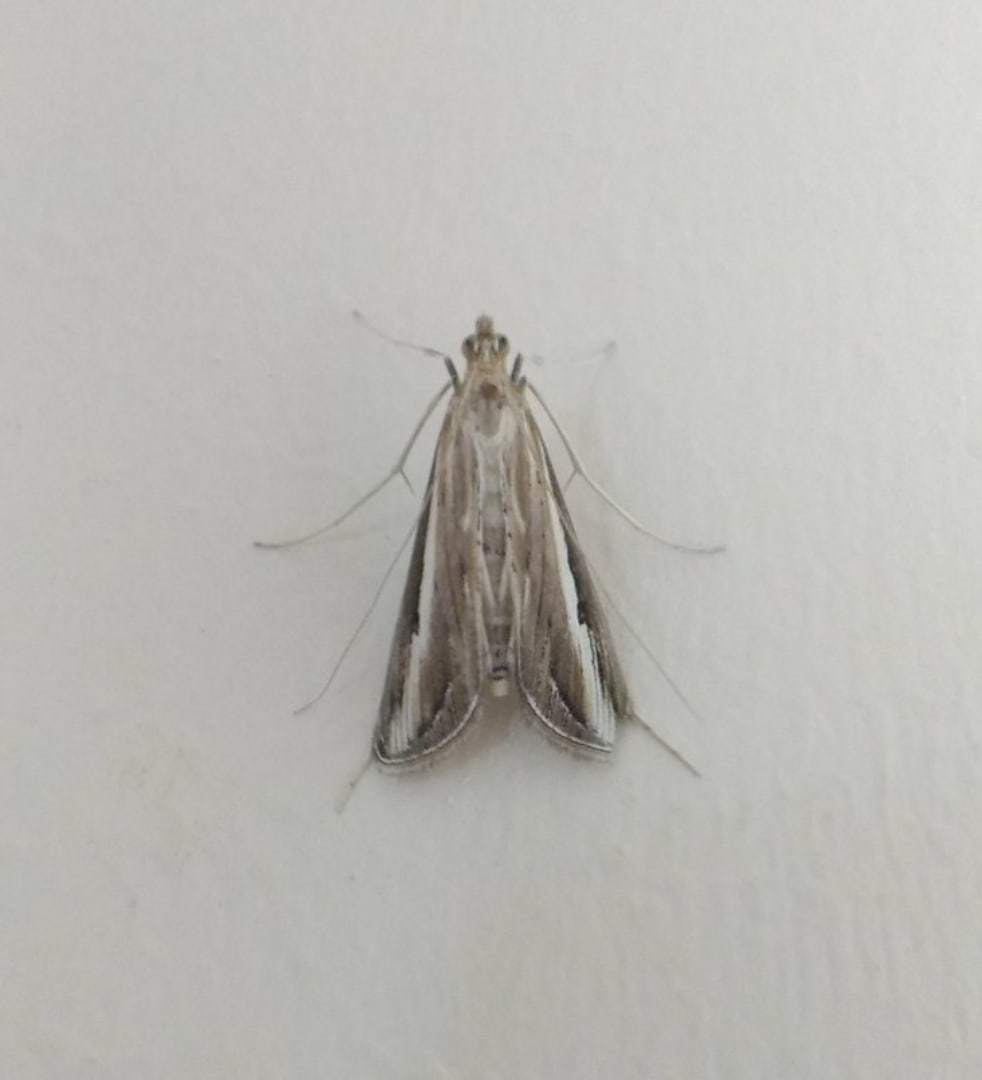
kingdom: Animalia
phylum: Arthropoda
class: Insecta
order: Lepidoptera
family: Crambidae
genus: Euclasta
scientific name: Euclasta splendidalis
